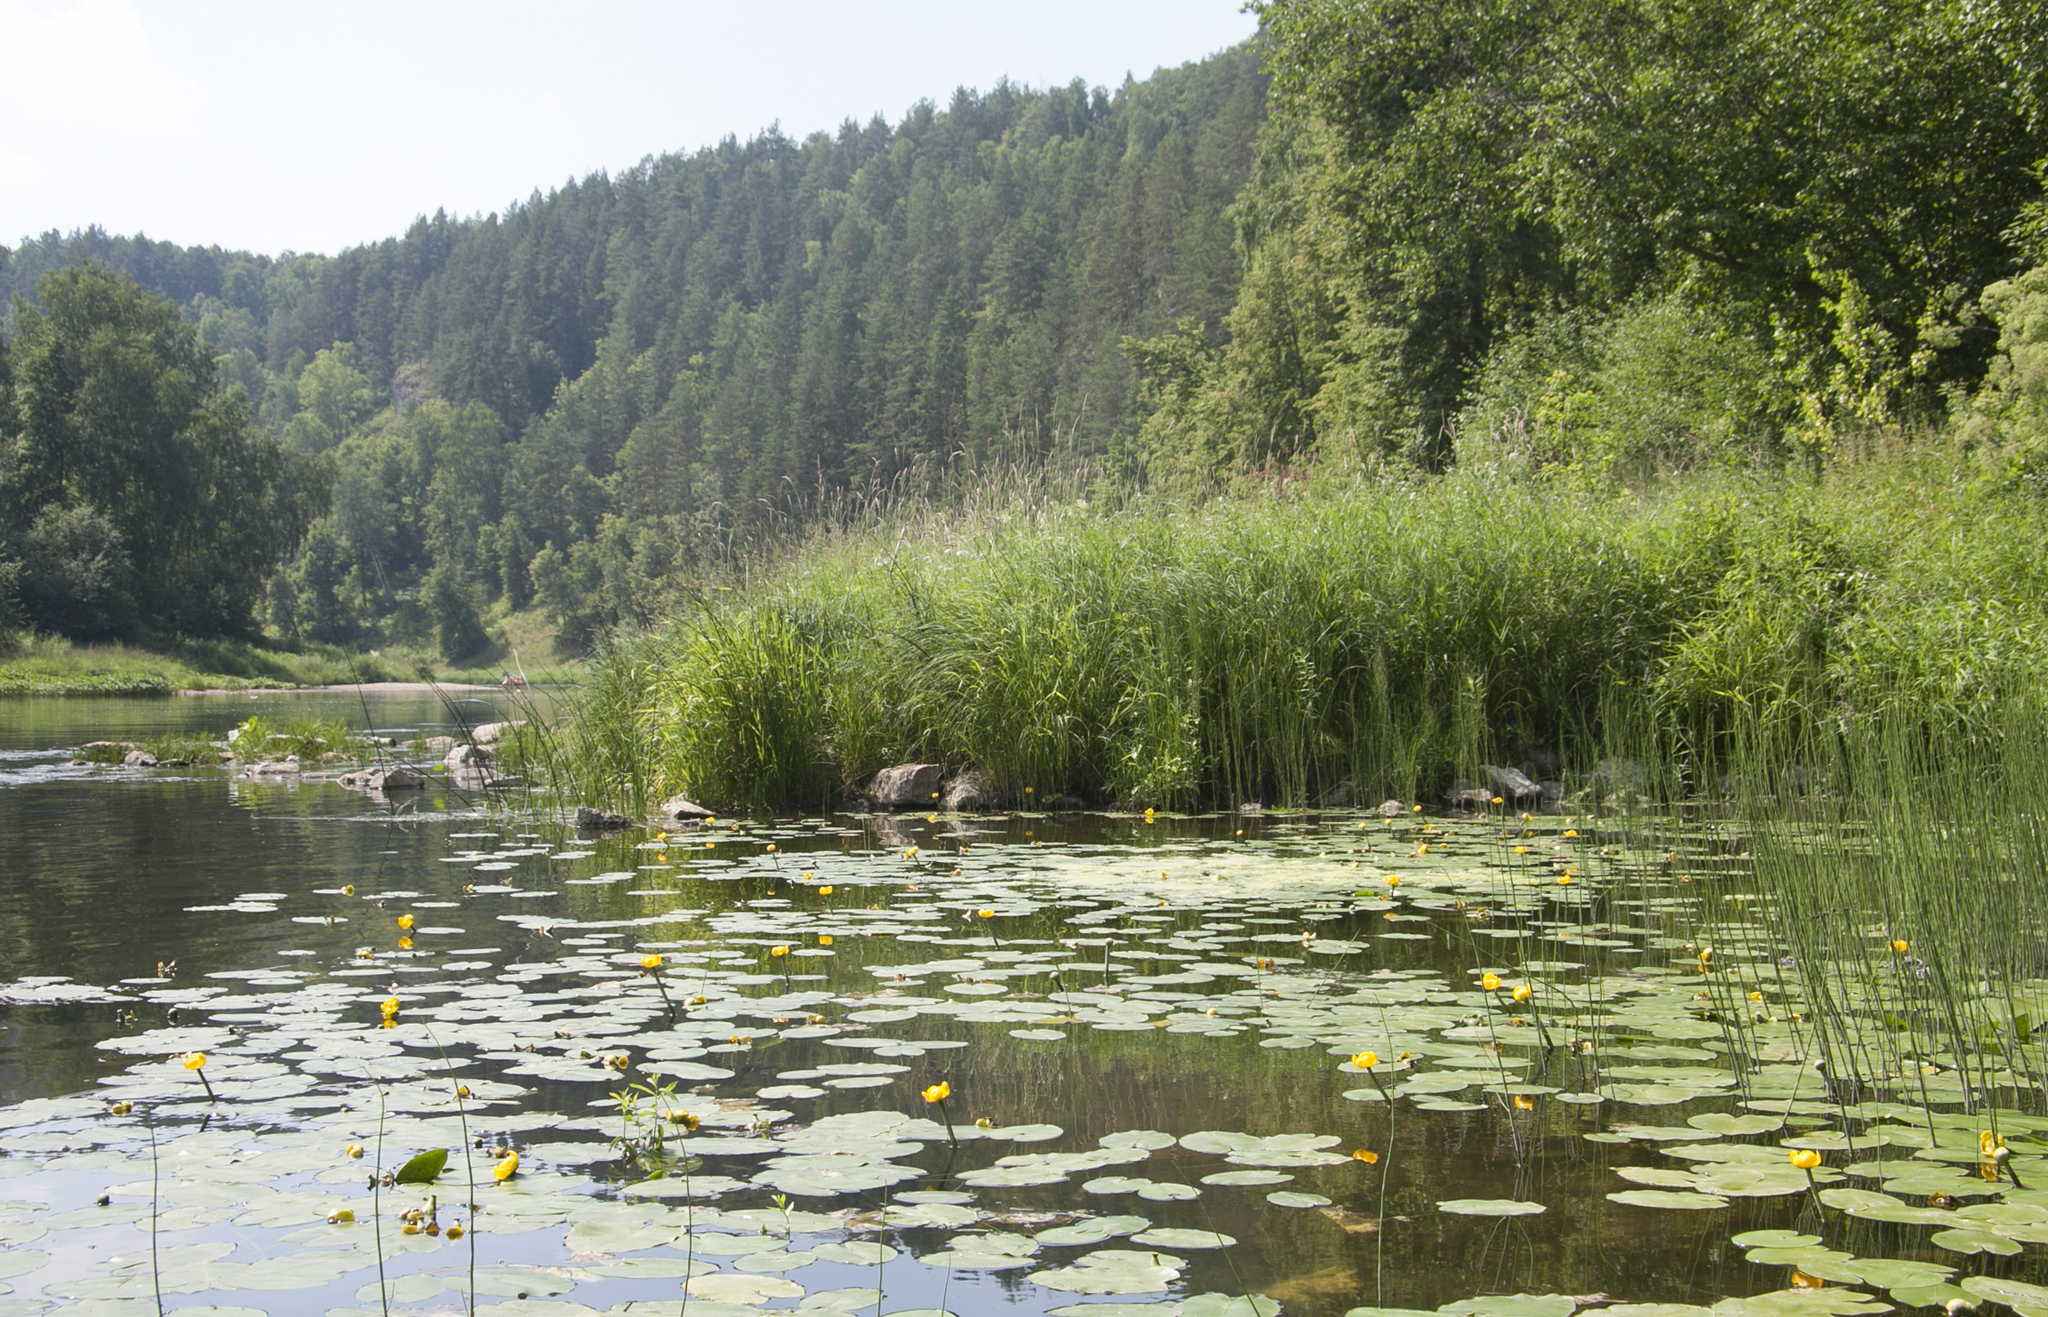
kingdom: Plantae
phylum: Tracheophyta
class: Magnoliopsida
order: Nymphaeales
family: Nymphaeaceae
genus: Nuphar
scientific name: Nuphar lutea
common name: Yellow water-lily
